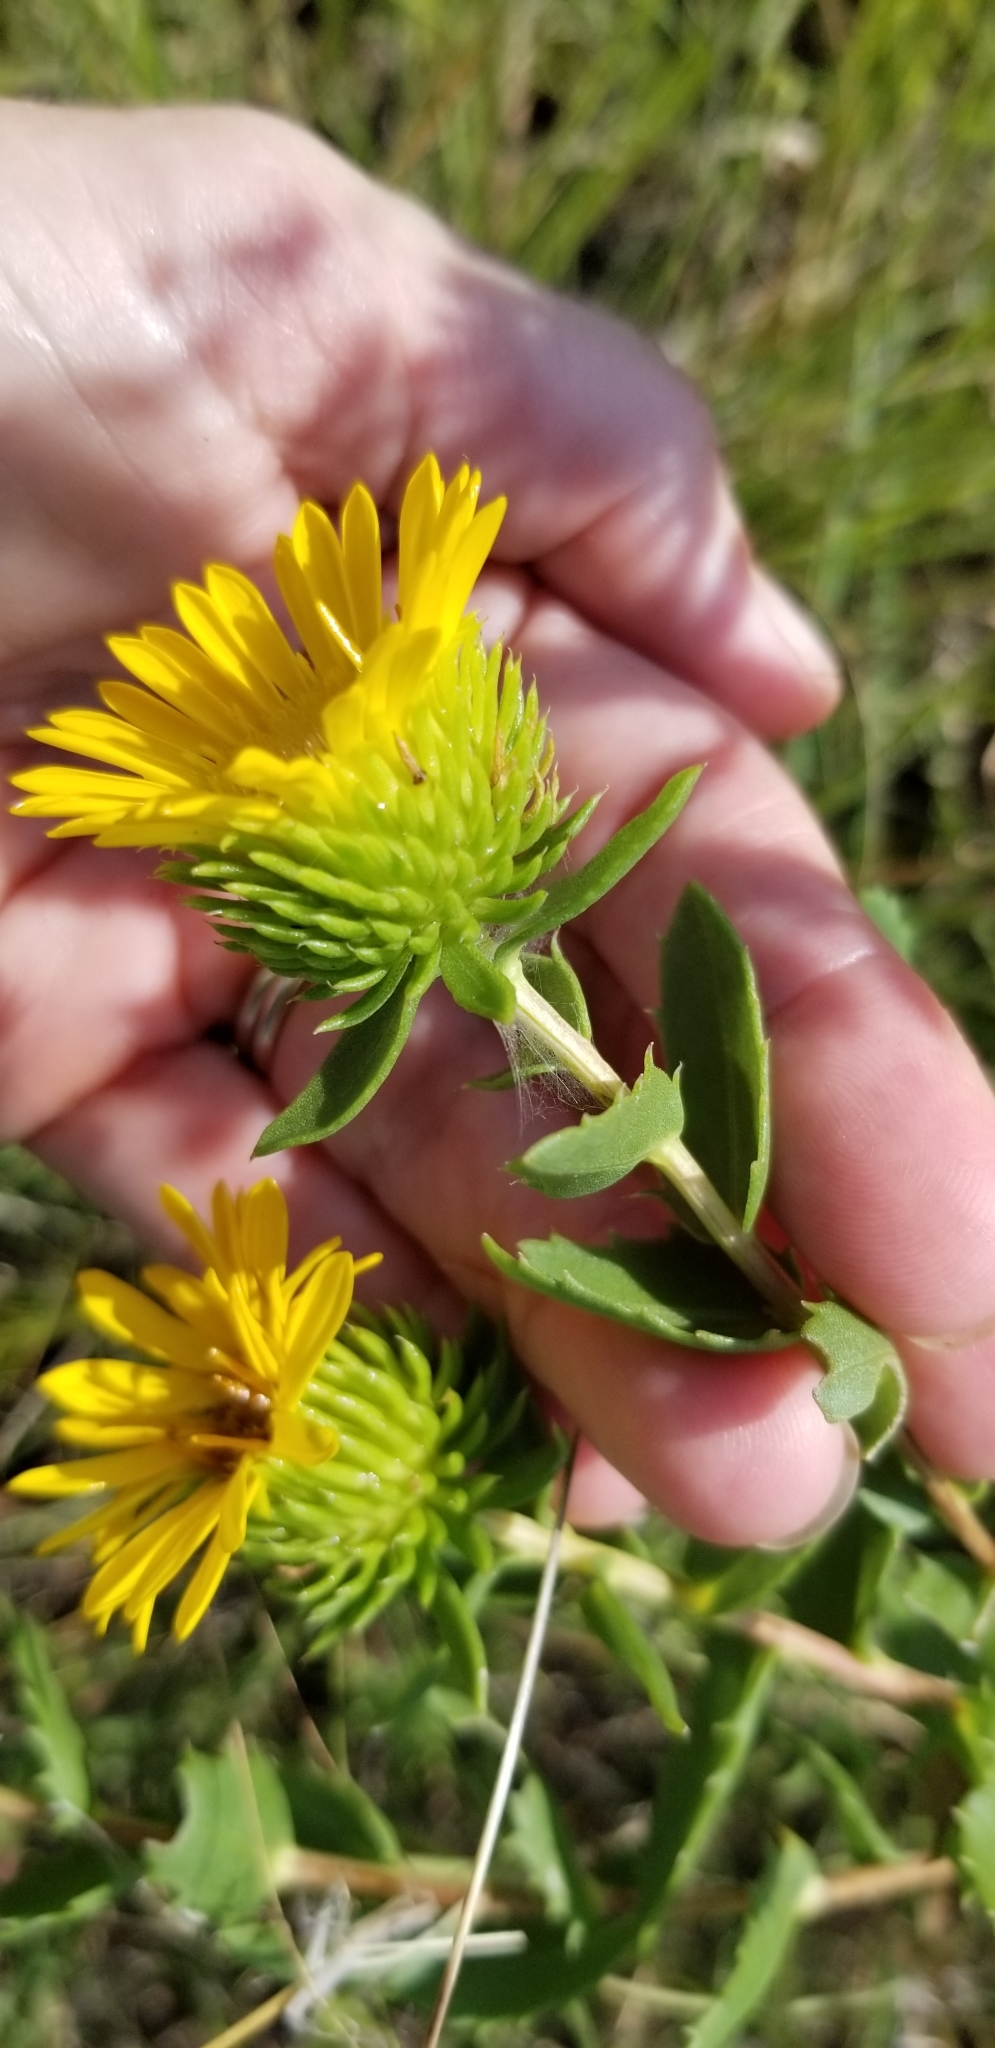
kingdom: Plantae
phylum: Tracheophyta
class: Magnoliopsida
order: Asterales
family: Asteraceae
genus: Grindelia
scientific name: Grindelia lanceolata
